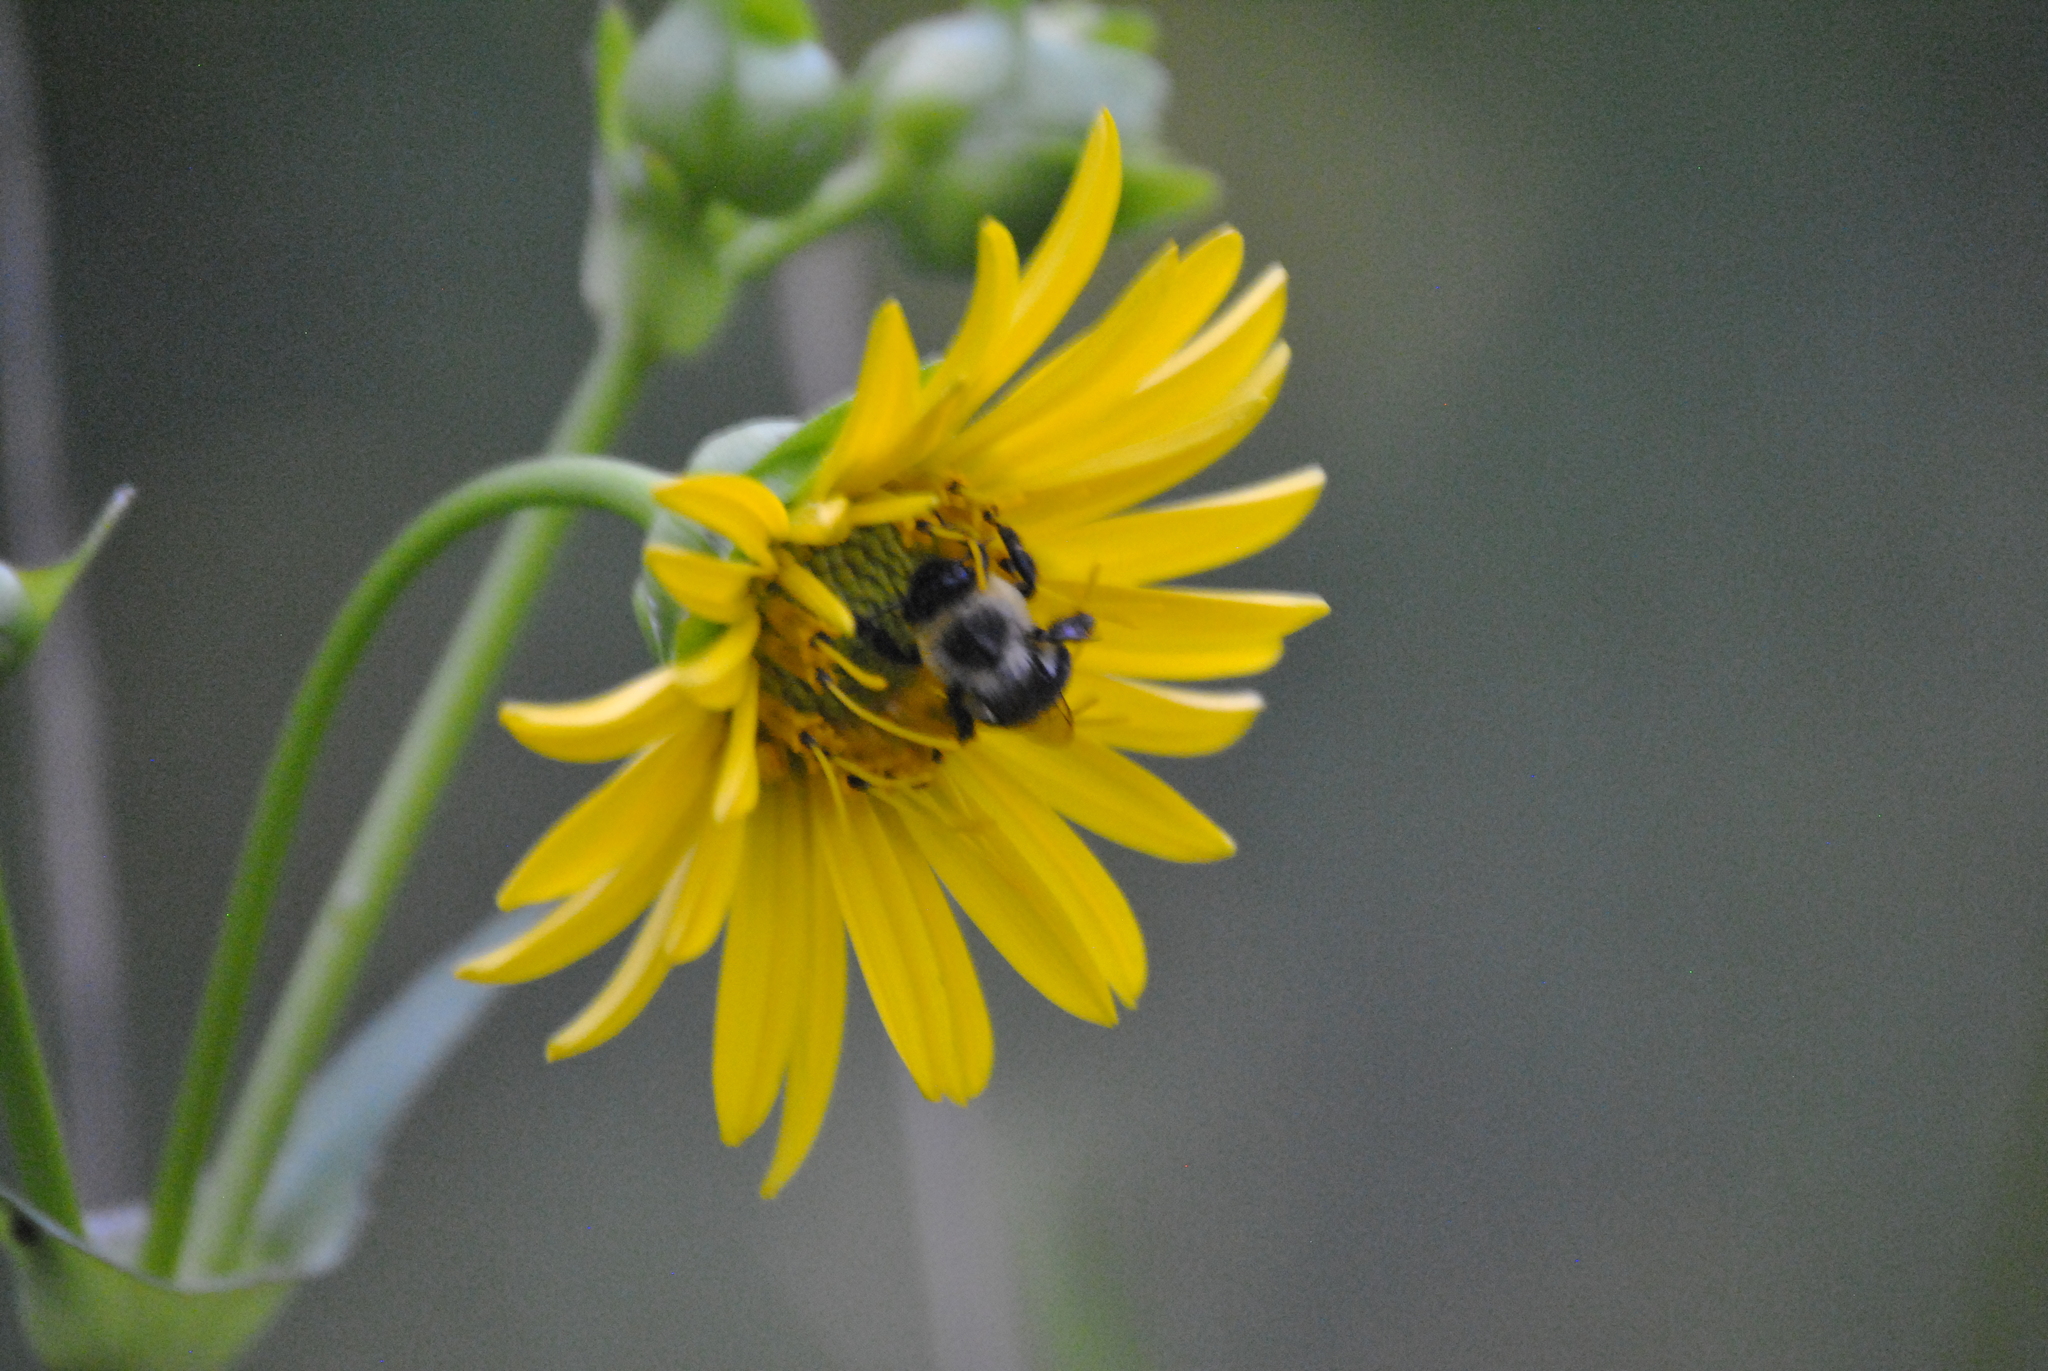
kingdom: Animalia
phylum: Arthropoda
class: Insecta
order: Hymenoptera
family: Apidae
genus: Bombus
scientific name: Bombus impatiens
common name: Common eastern bumble bee
